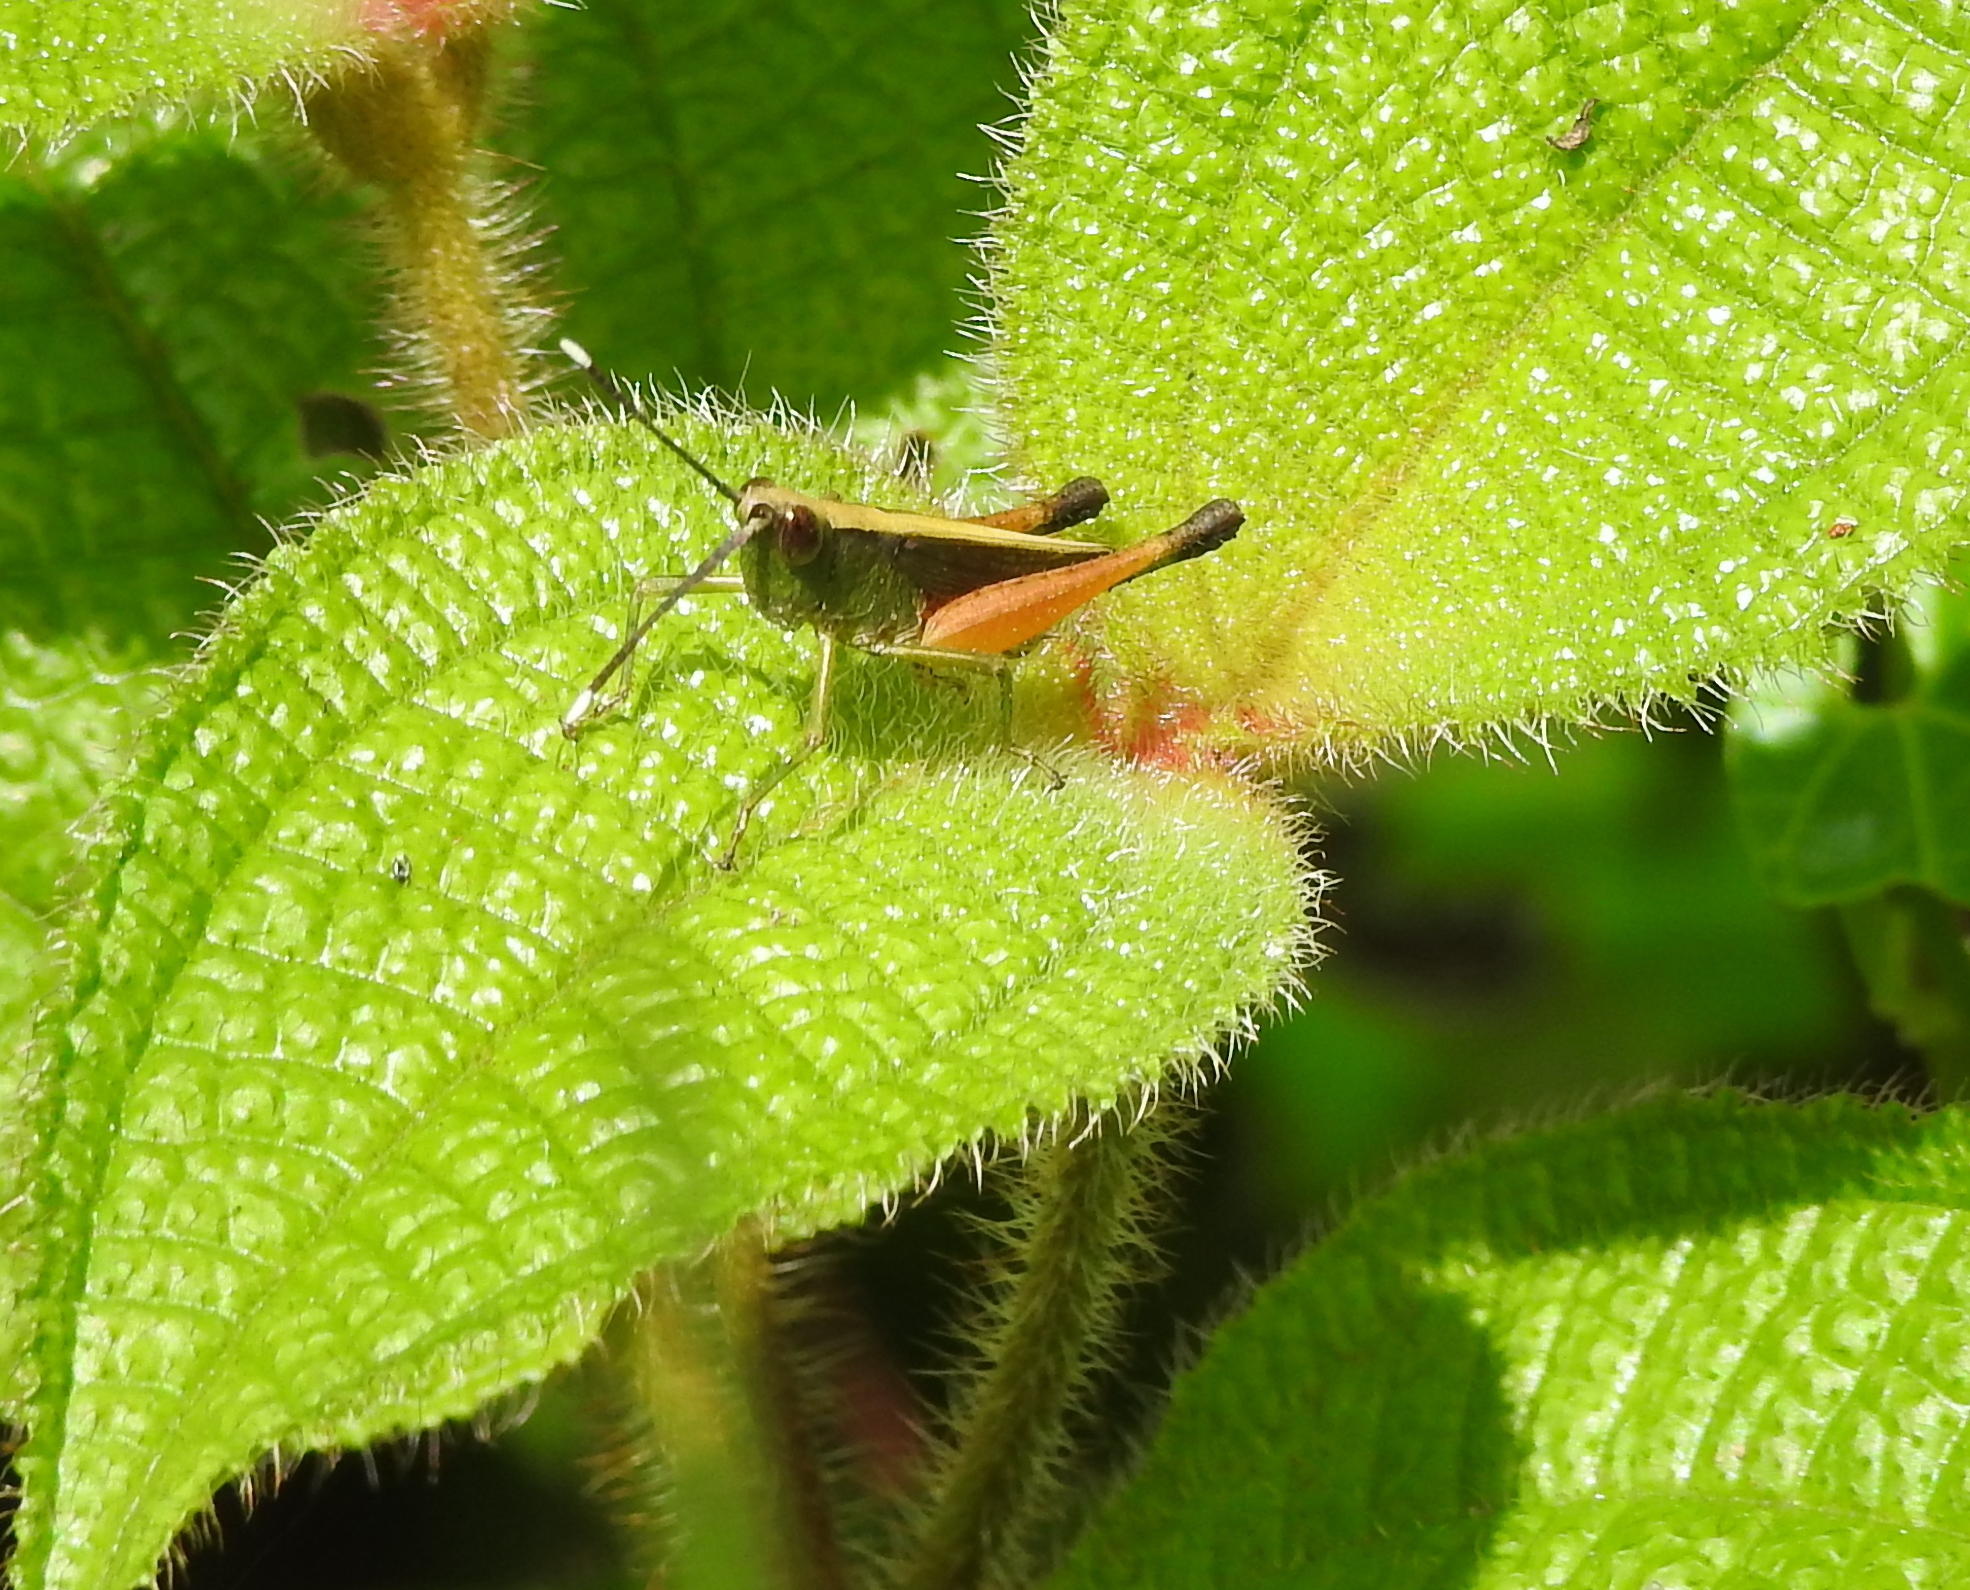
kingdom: Animalia
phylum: Arthropoda
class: Insecta
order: Orthoptera
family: Acrididae
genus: Phlaeoba
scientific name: Phlaeoba antennata
